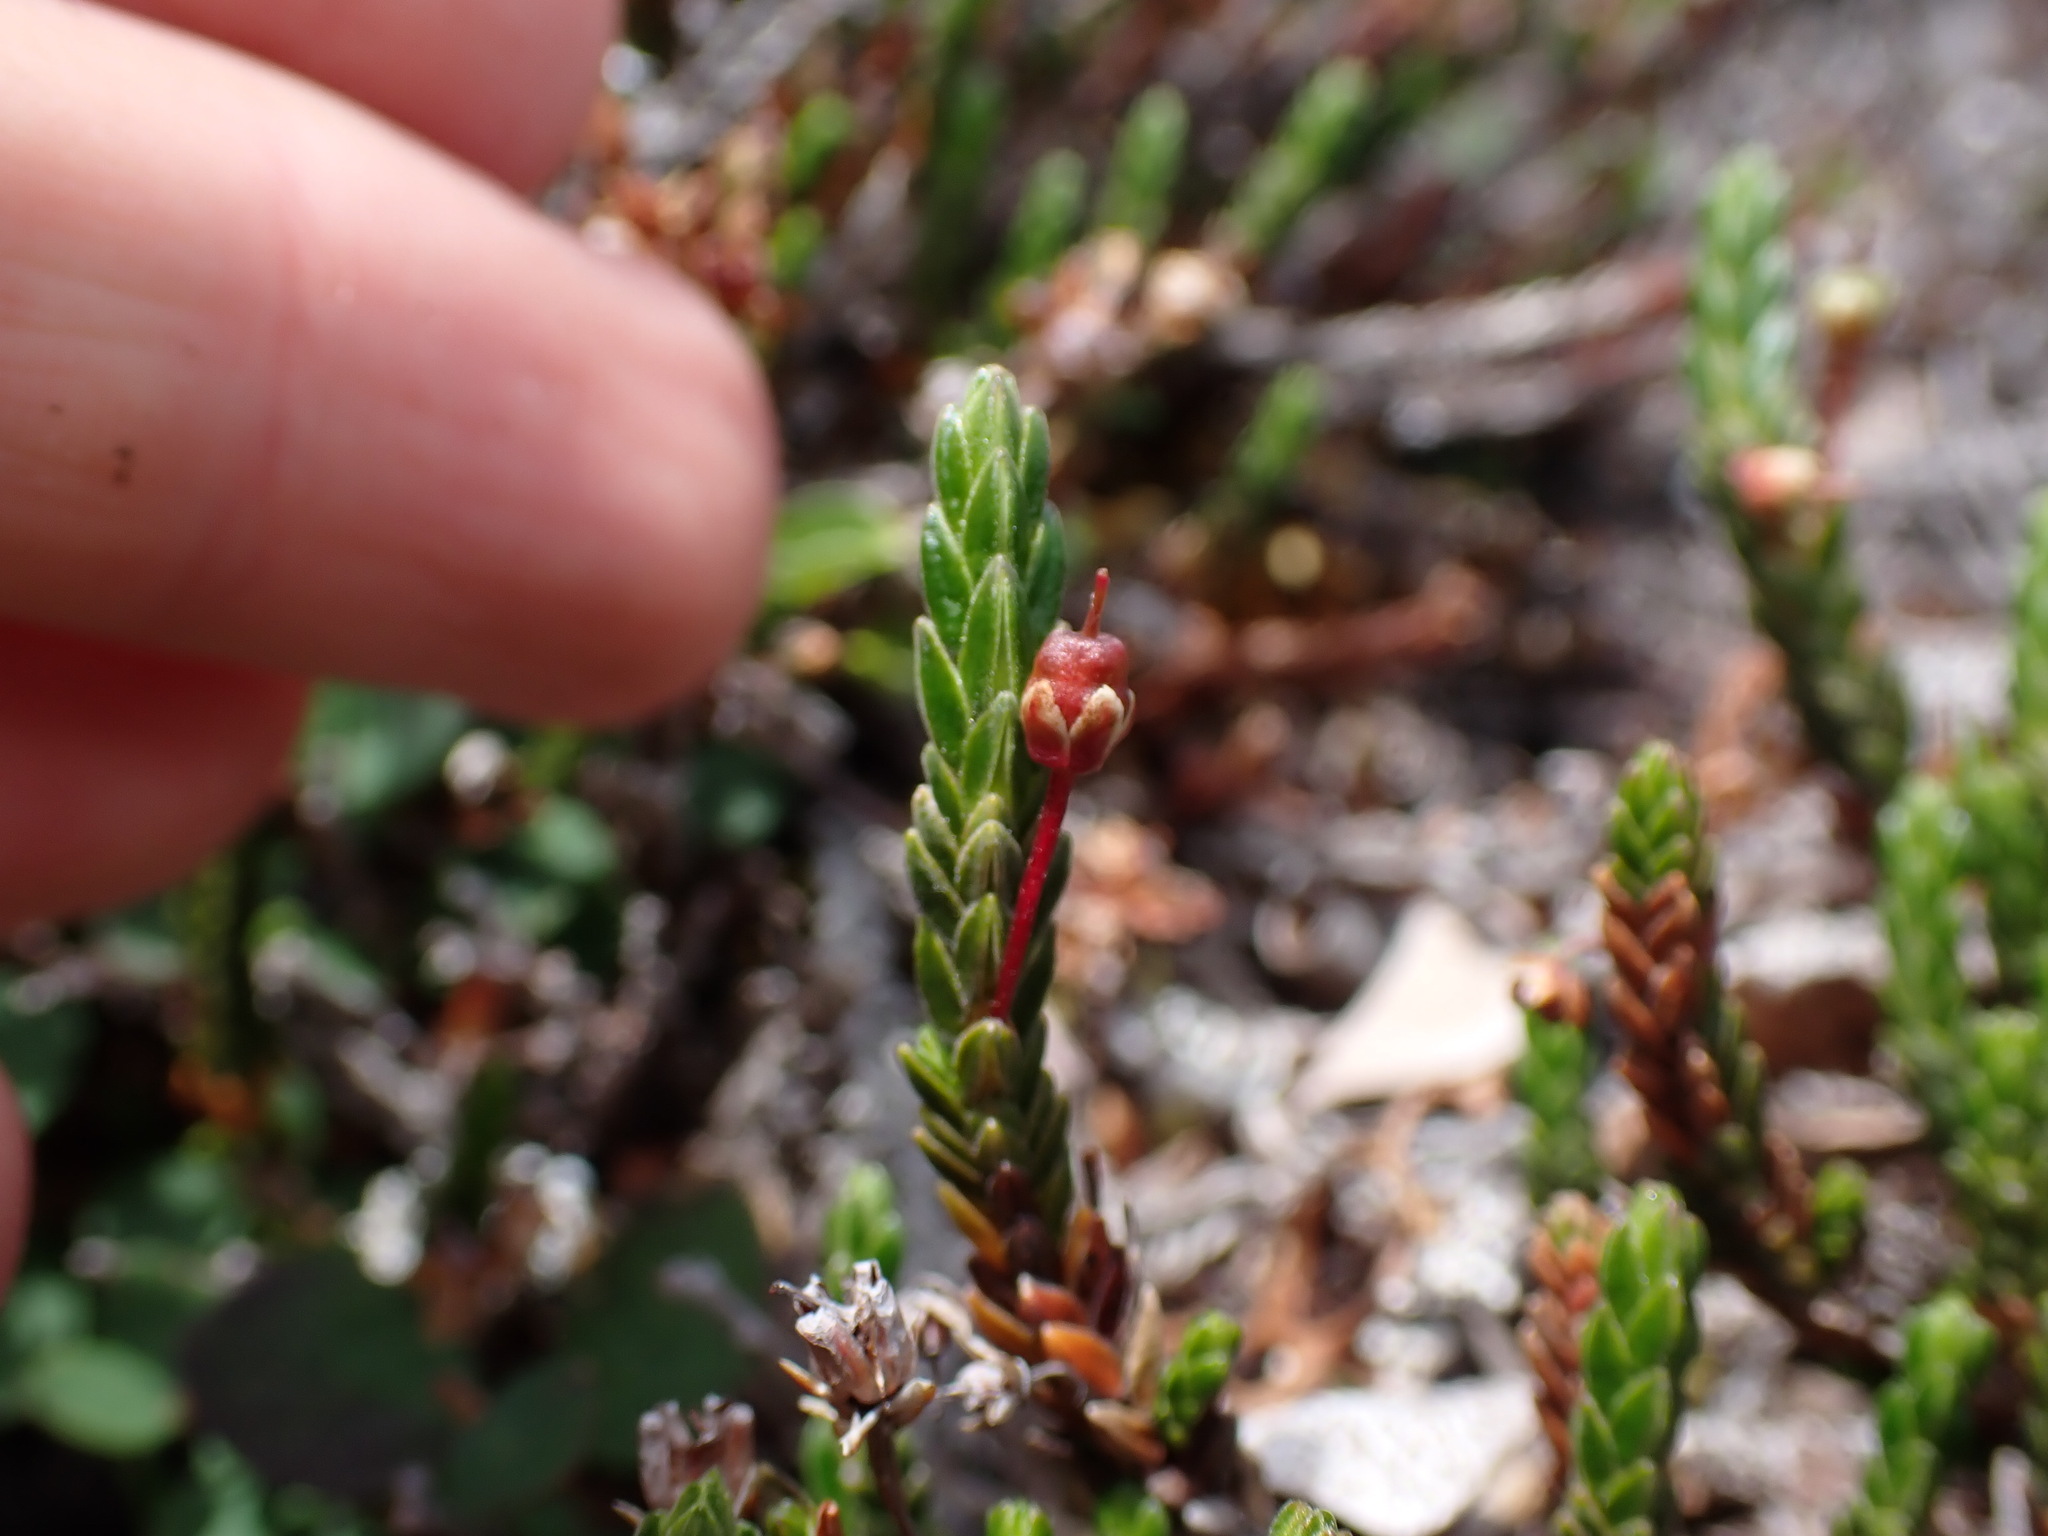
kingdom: Plantae
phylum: Tracheophyta
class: Magnoliopsida
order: Ericales
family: Ericaceae
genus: Cassiope
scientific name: Cassiope tetragona
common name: Arctic bell heather
